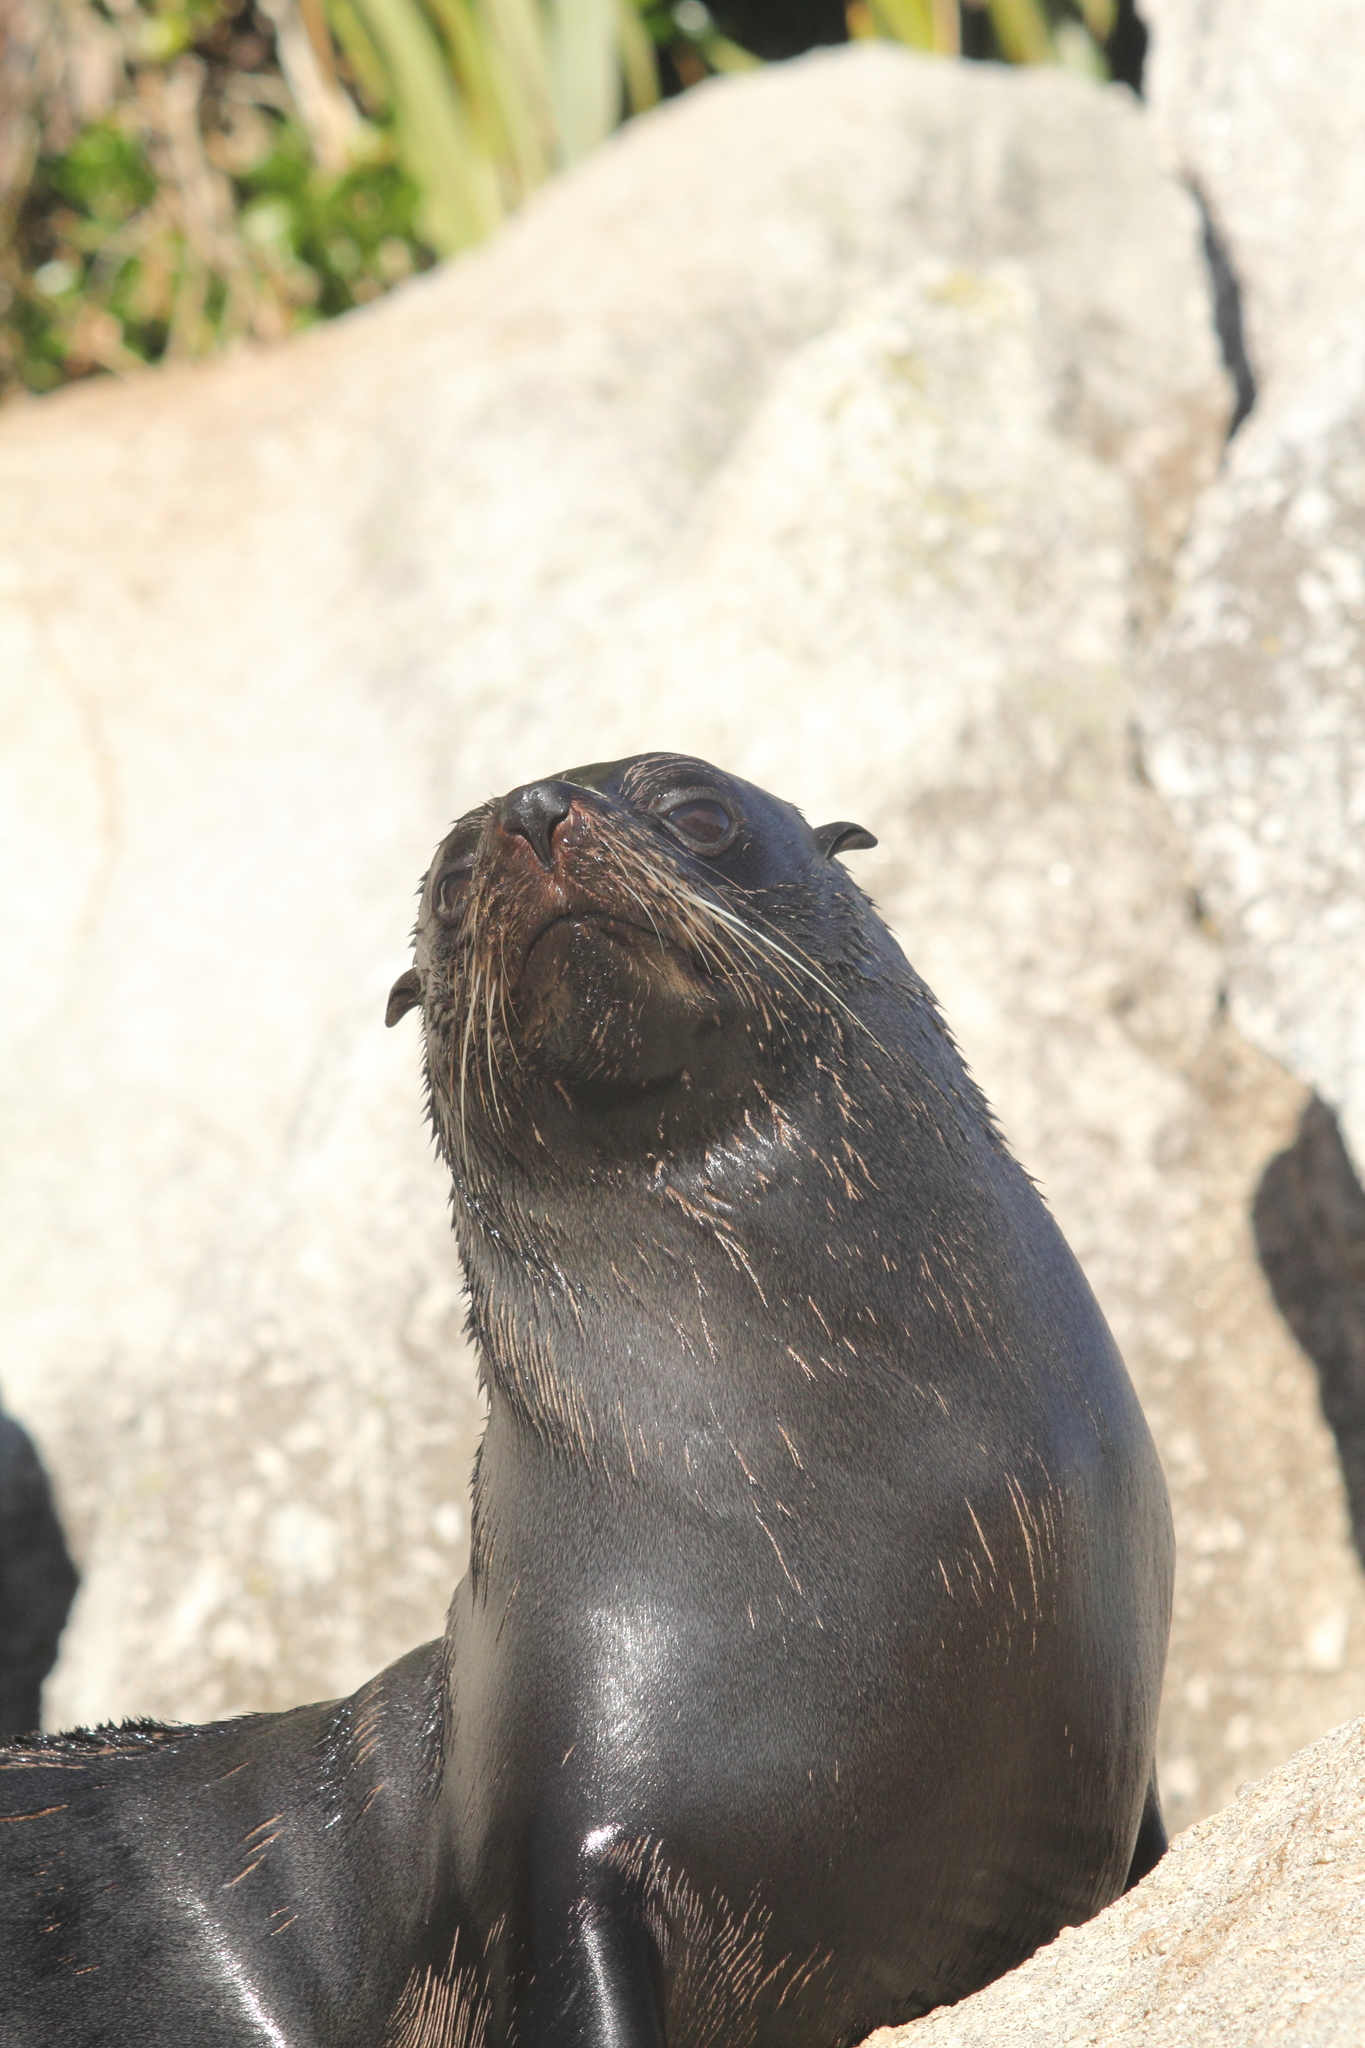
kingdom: Animalia
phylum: Chordata
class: Mammalia
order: Carnivora
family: Otariidae
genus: Arctocephalus
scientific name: Arctocephalus forsteri
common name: New zealand fur seal
